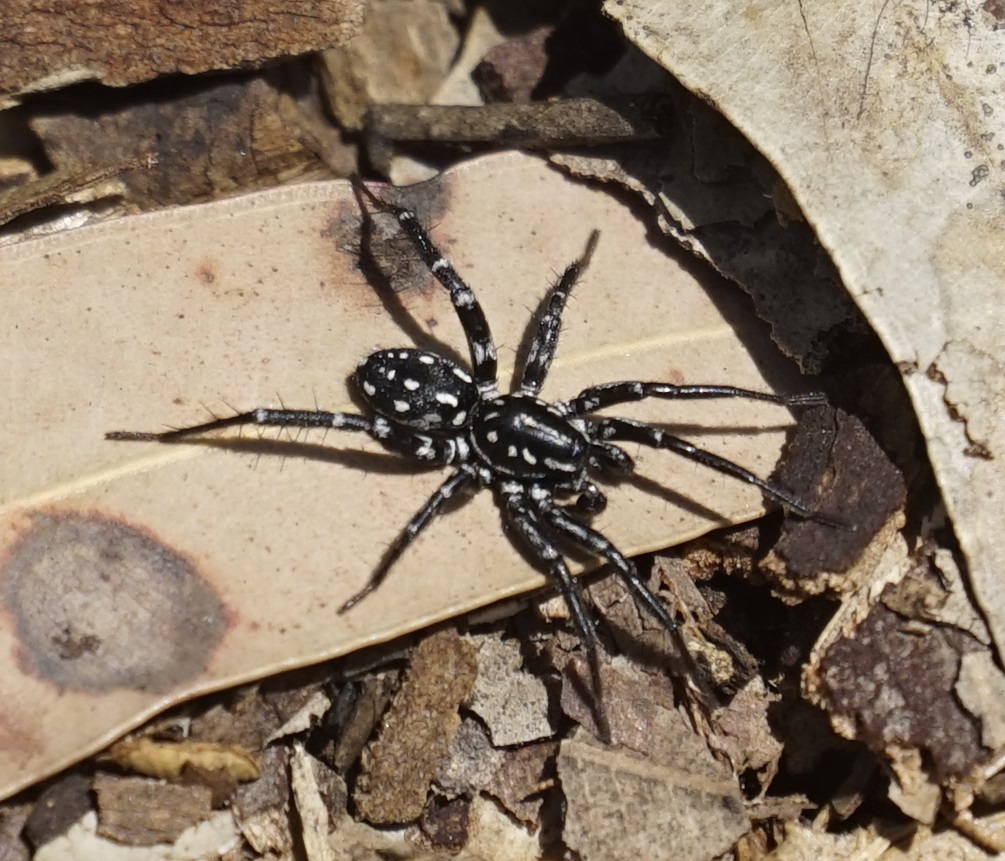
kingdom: Animalia
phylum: Arthropoda
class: Arachnida
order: Araneae
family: Corinnidae
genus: Nyssus
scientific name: Nyssus albopunctatus
